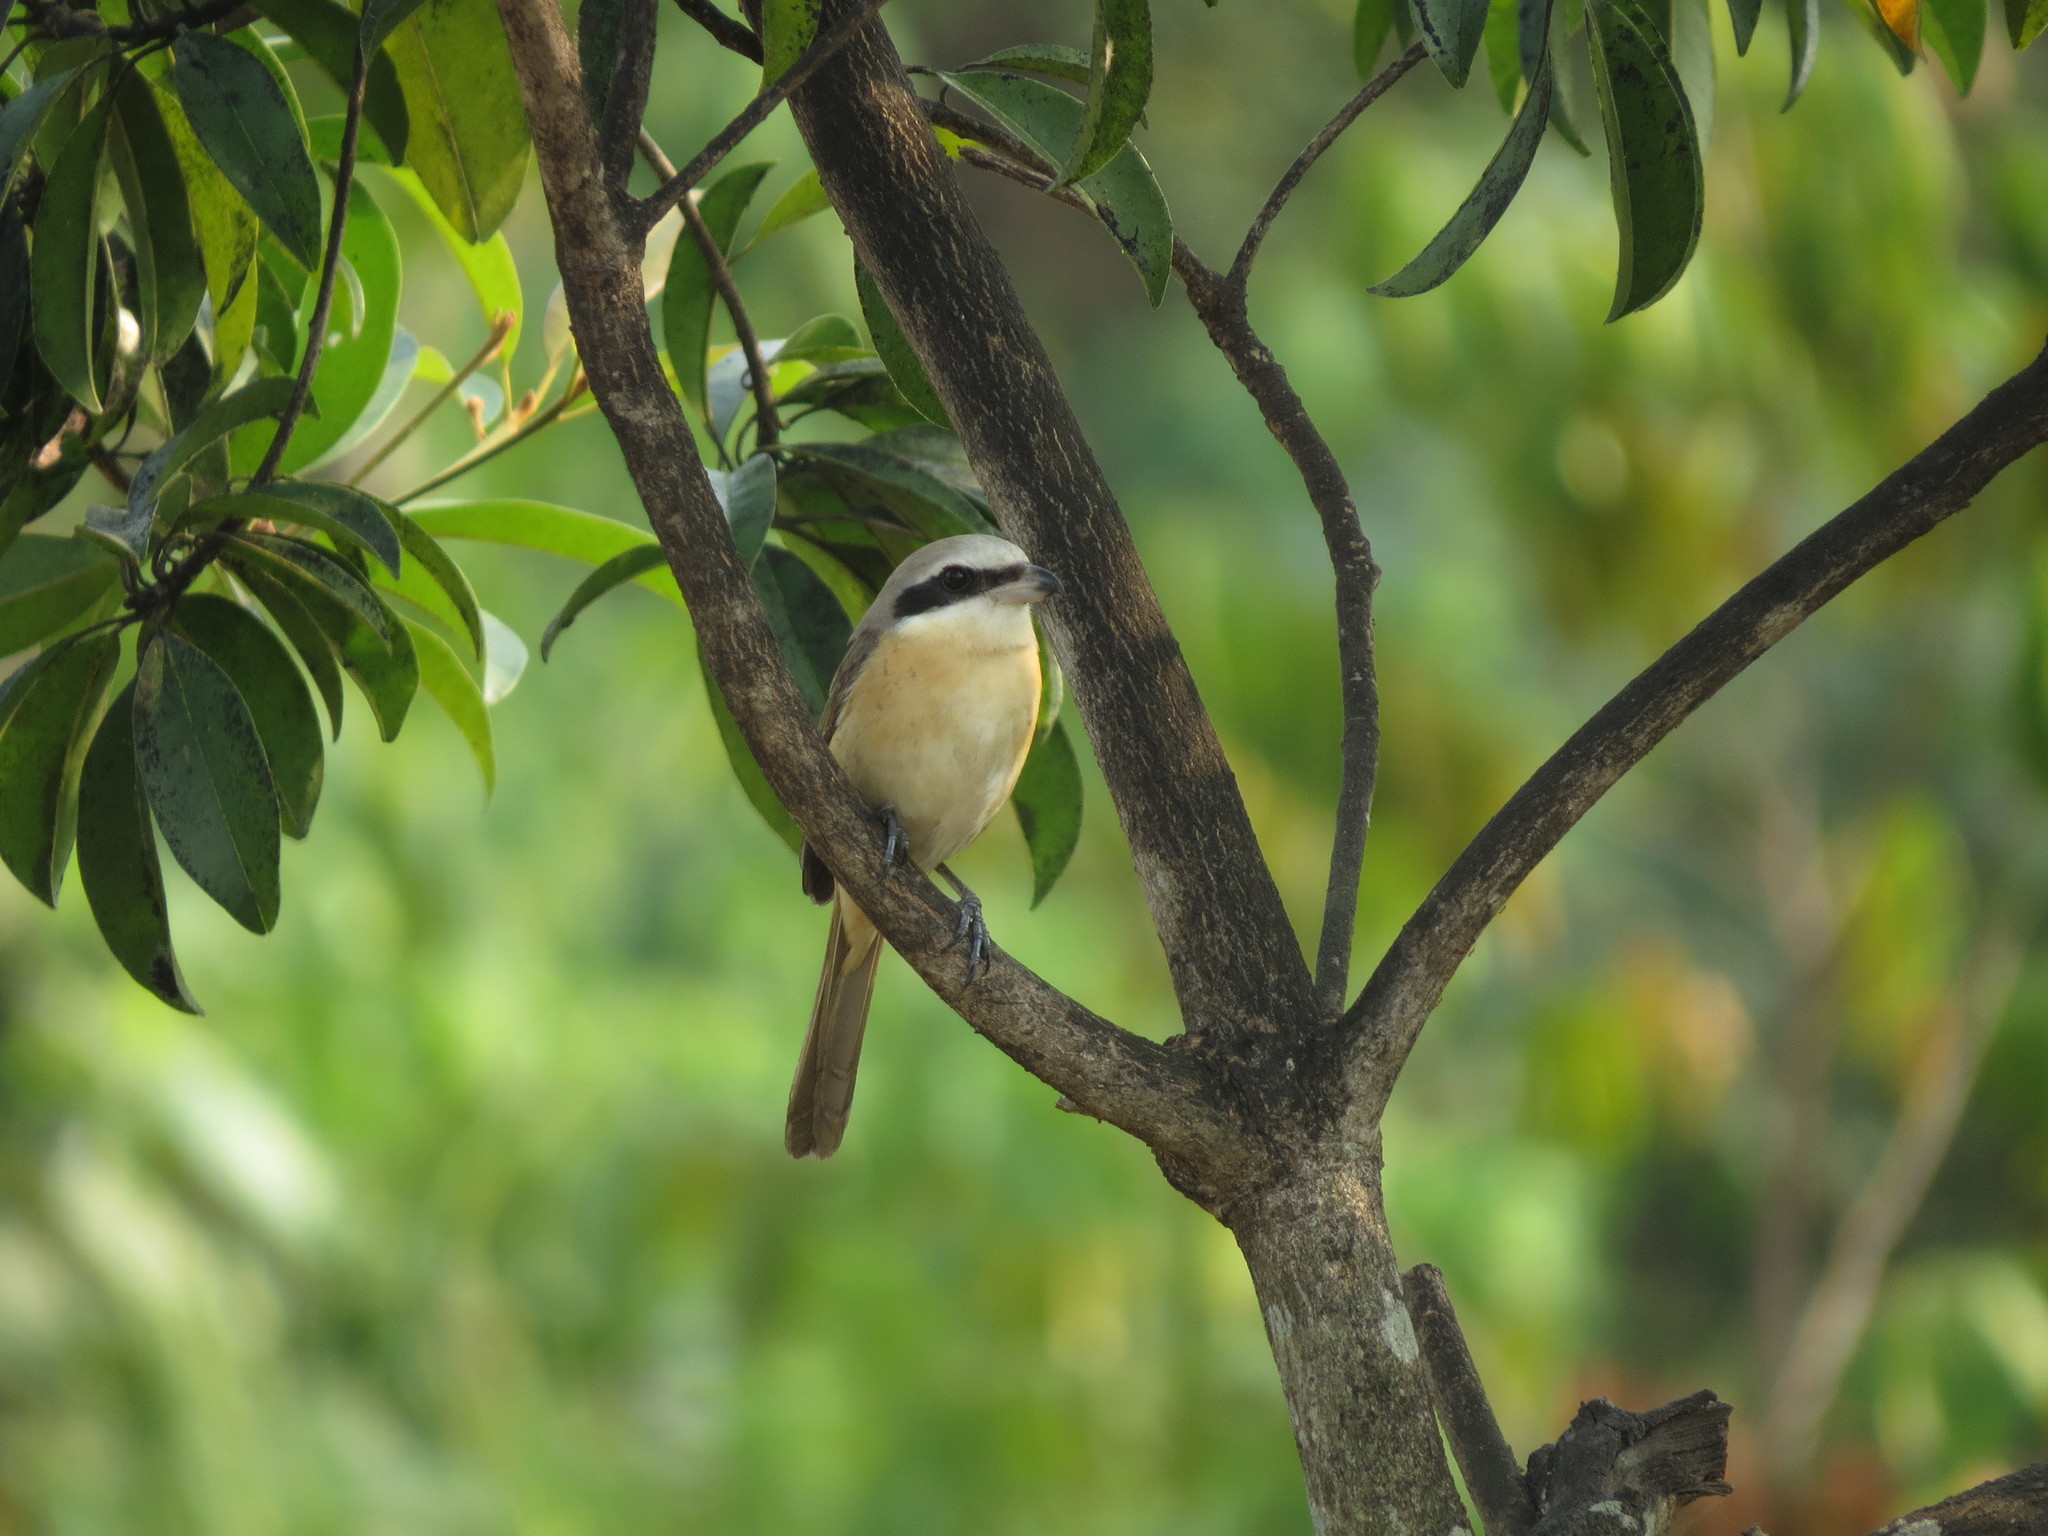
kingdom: Animalia
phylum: Chordata
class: Aves
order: Passeriformes
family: Laniidae
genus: Lanius
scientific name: Lanius cristatus
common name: Brown shrike
